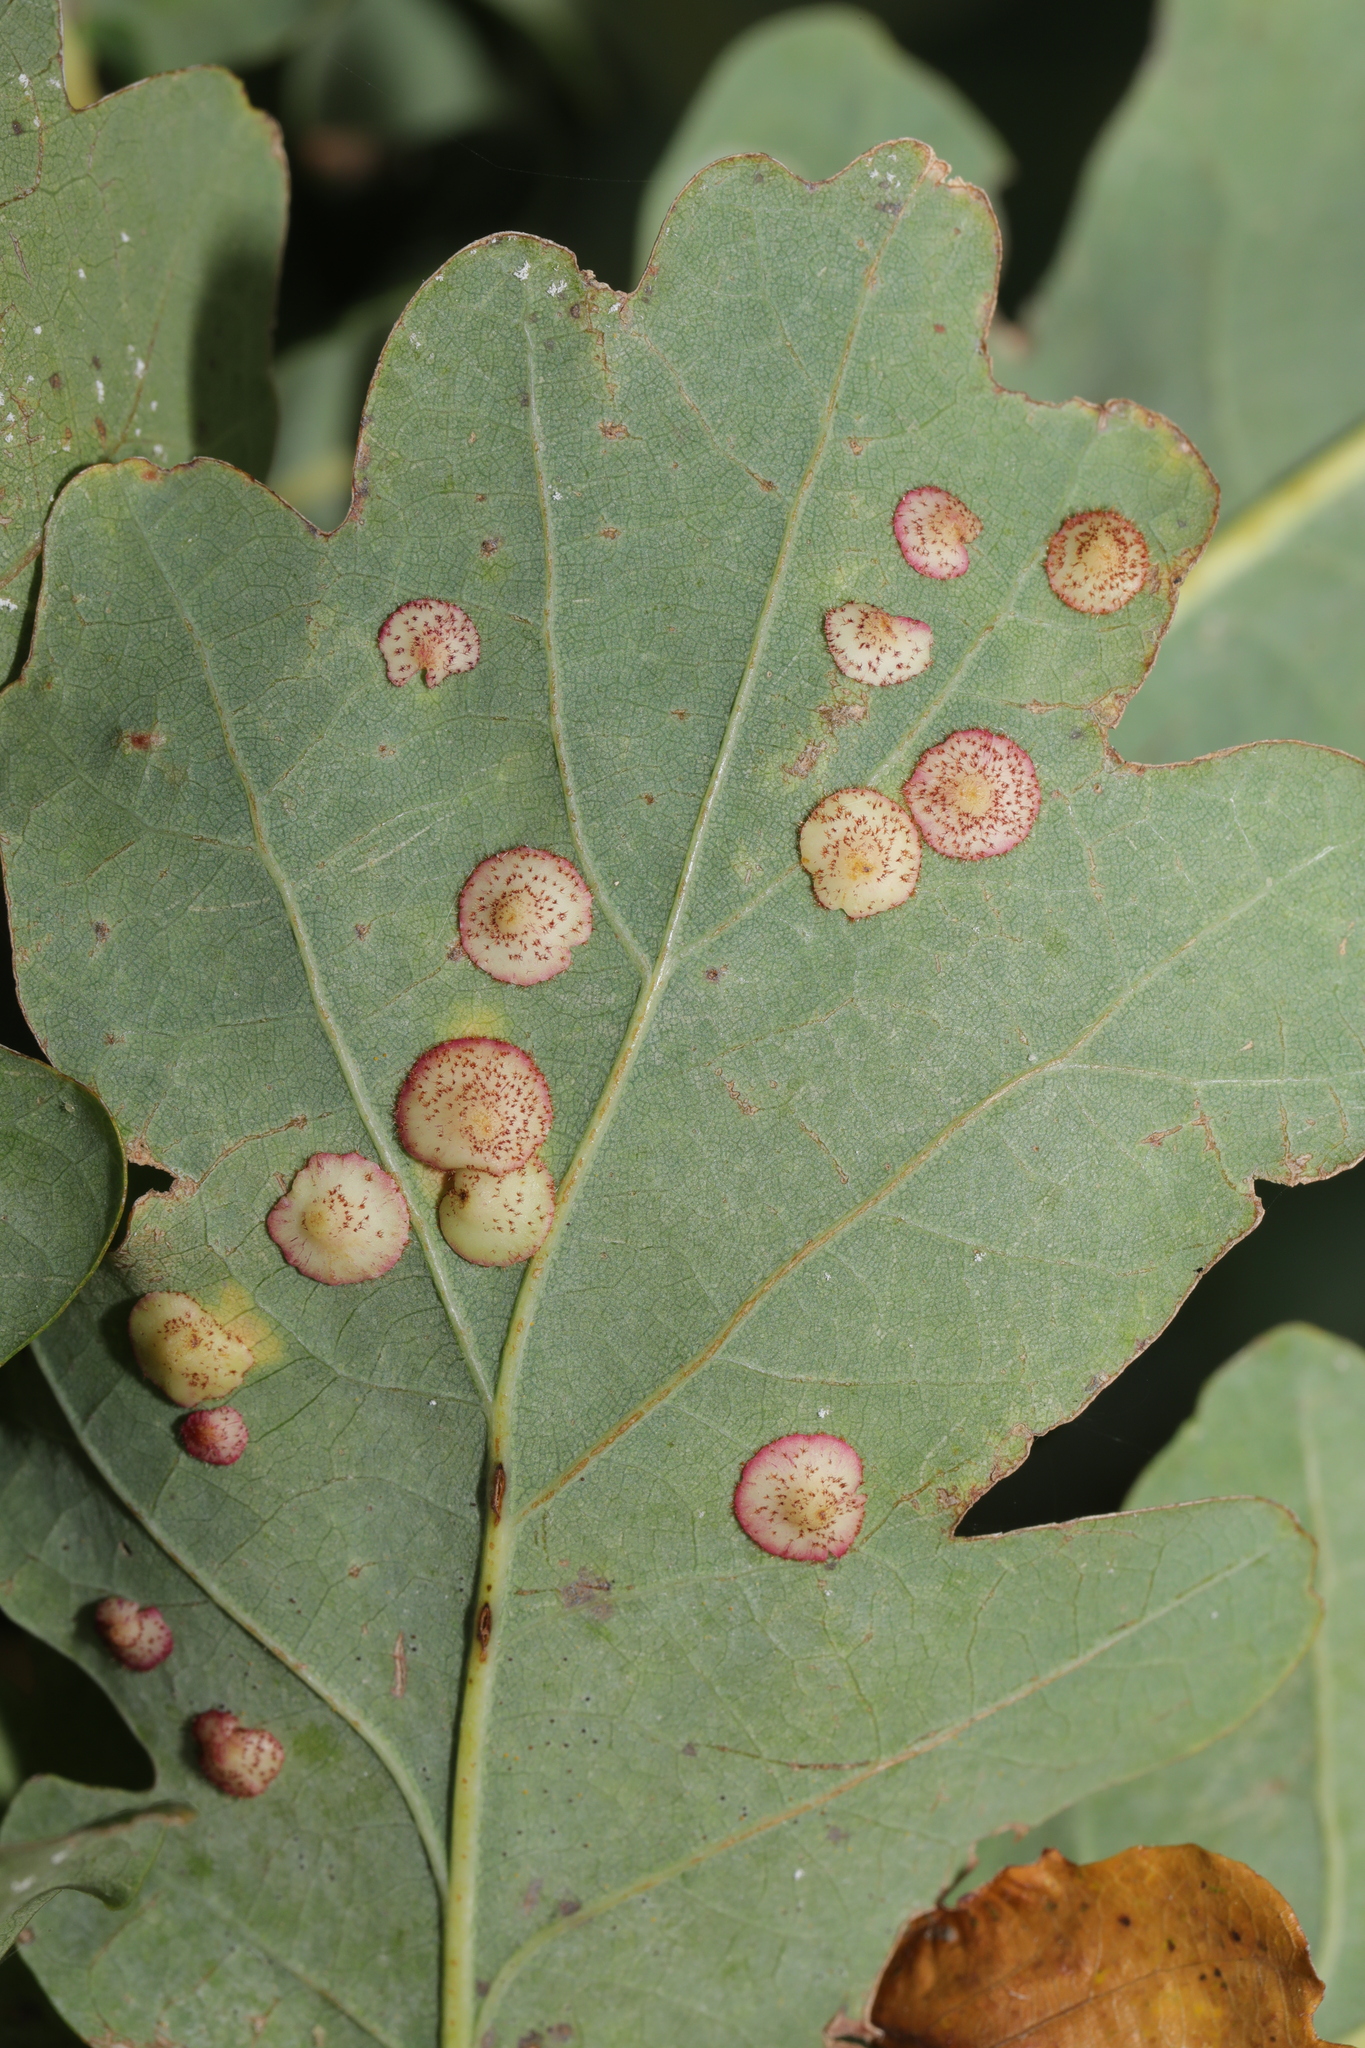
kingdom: Animalia
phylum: Arthropoda
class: Insecta
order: Hymenoptera
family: Cynipidae
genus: Neuroterus
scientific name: Neuroterus quercusbaccarum
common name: Common spangle gall
